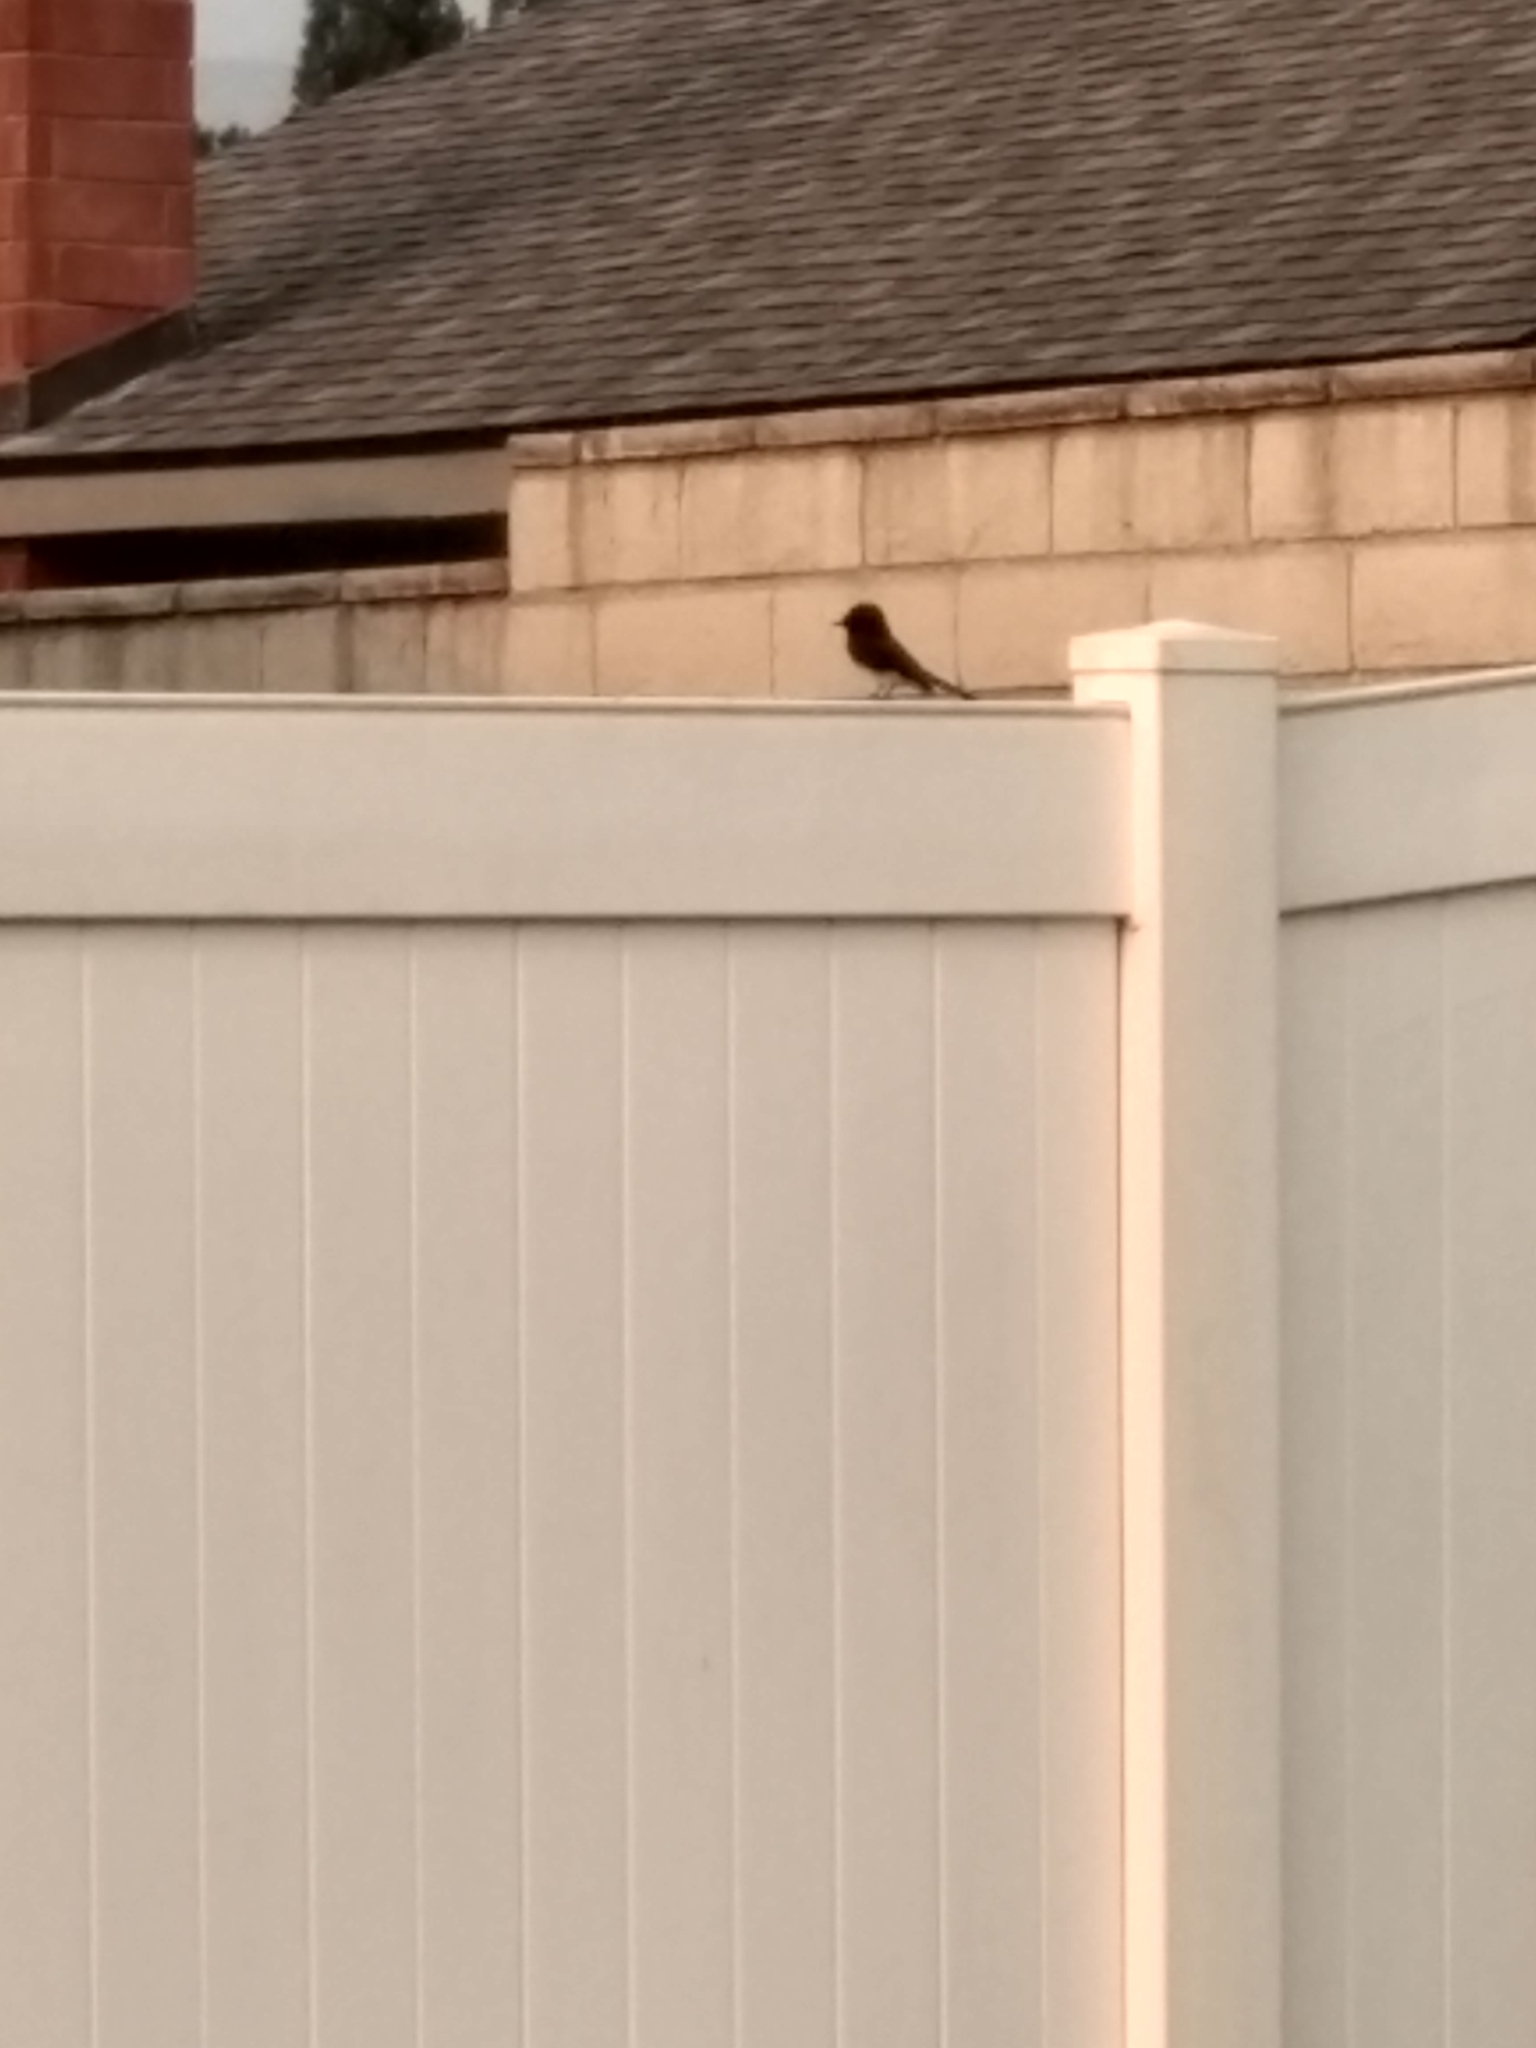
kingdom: Animalia
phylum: Chordata
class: Aves
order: Passeriformes
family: Tyrannidae
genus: Sayornis
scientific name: Sayornis nigricans
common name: Black phoebe
